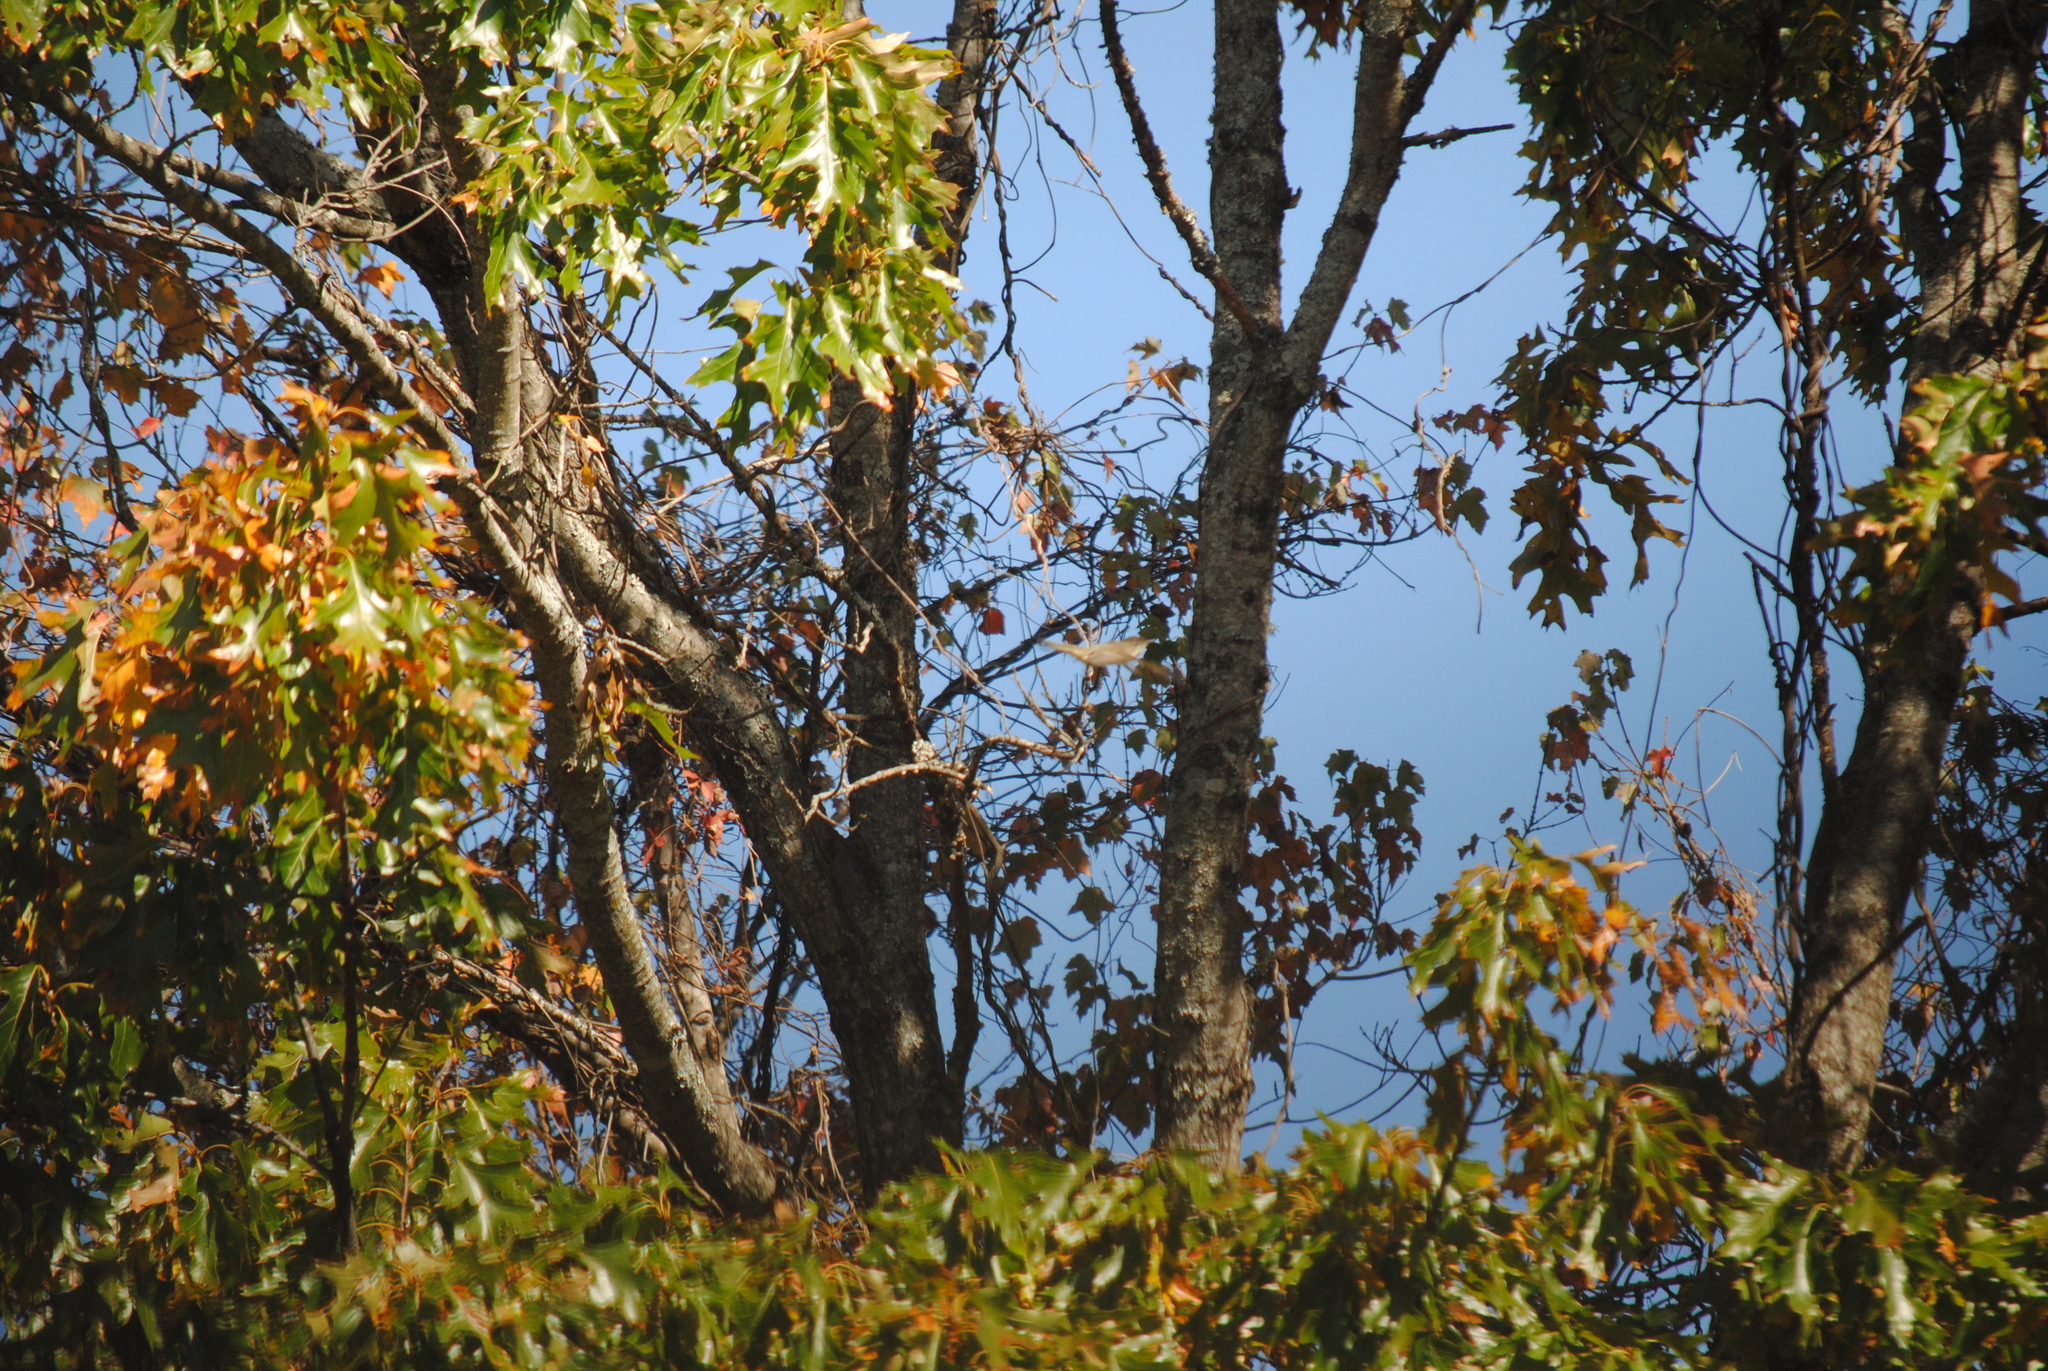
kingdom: Animalia
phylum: Chordata
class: Aves
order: Passeriformes
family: Tyrannidae
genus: Sayornis
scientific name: Sayornis phoebe
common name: Eastern phoebe
